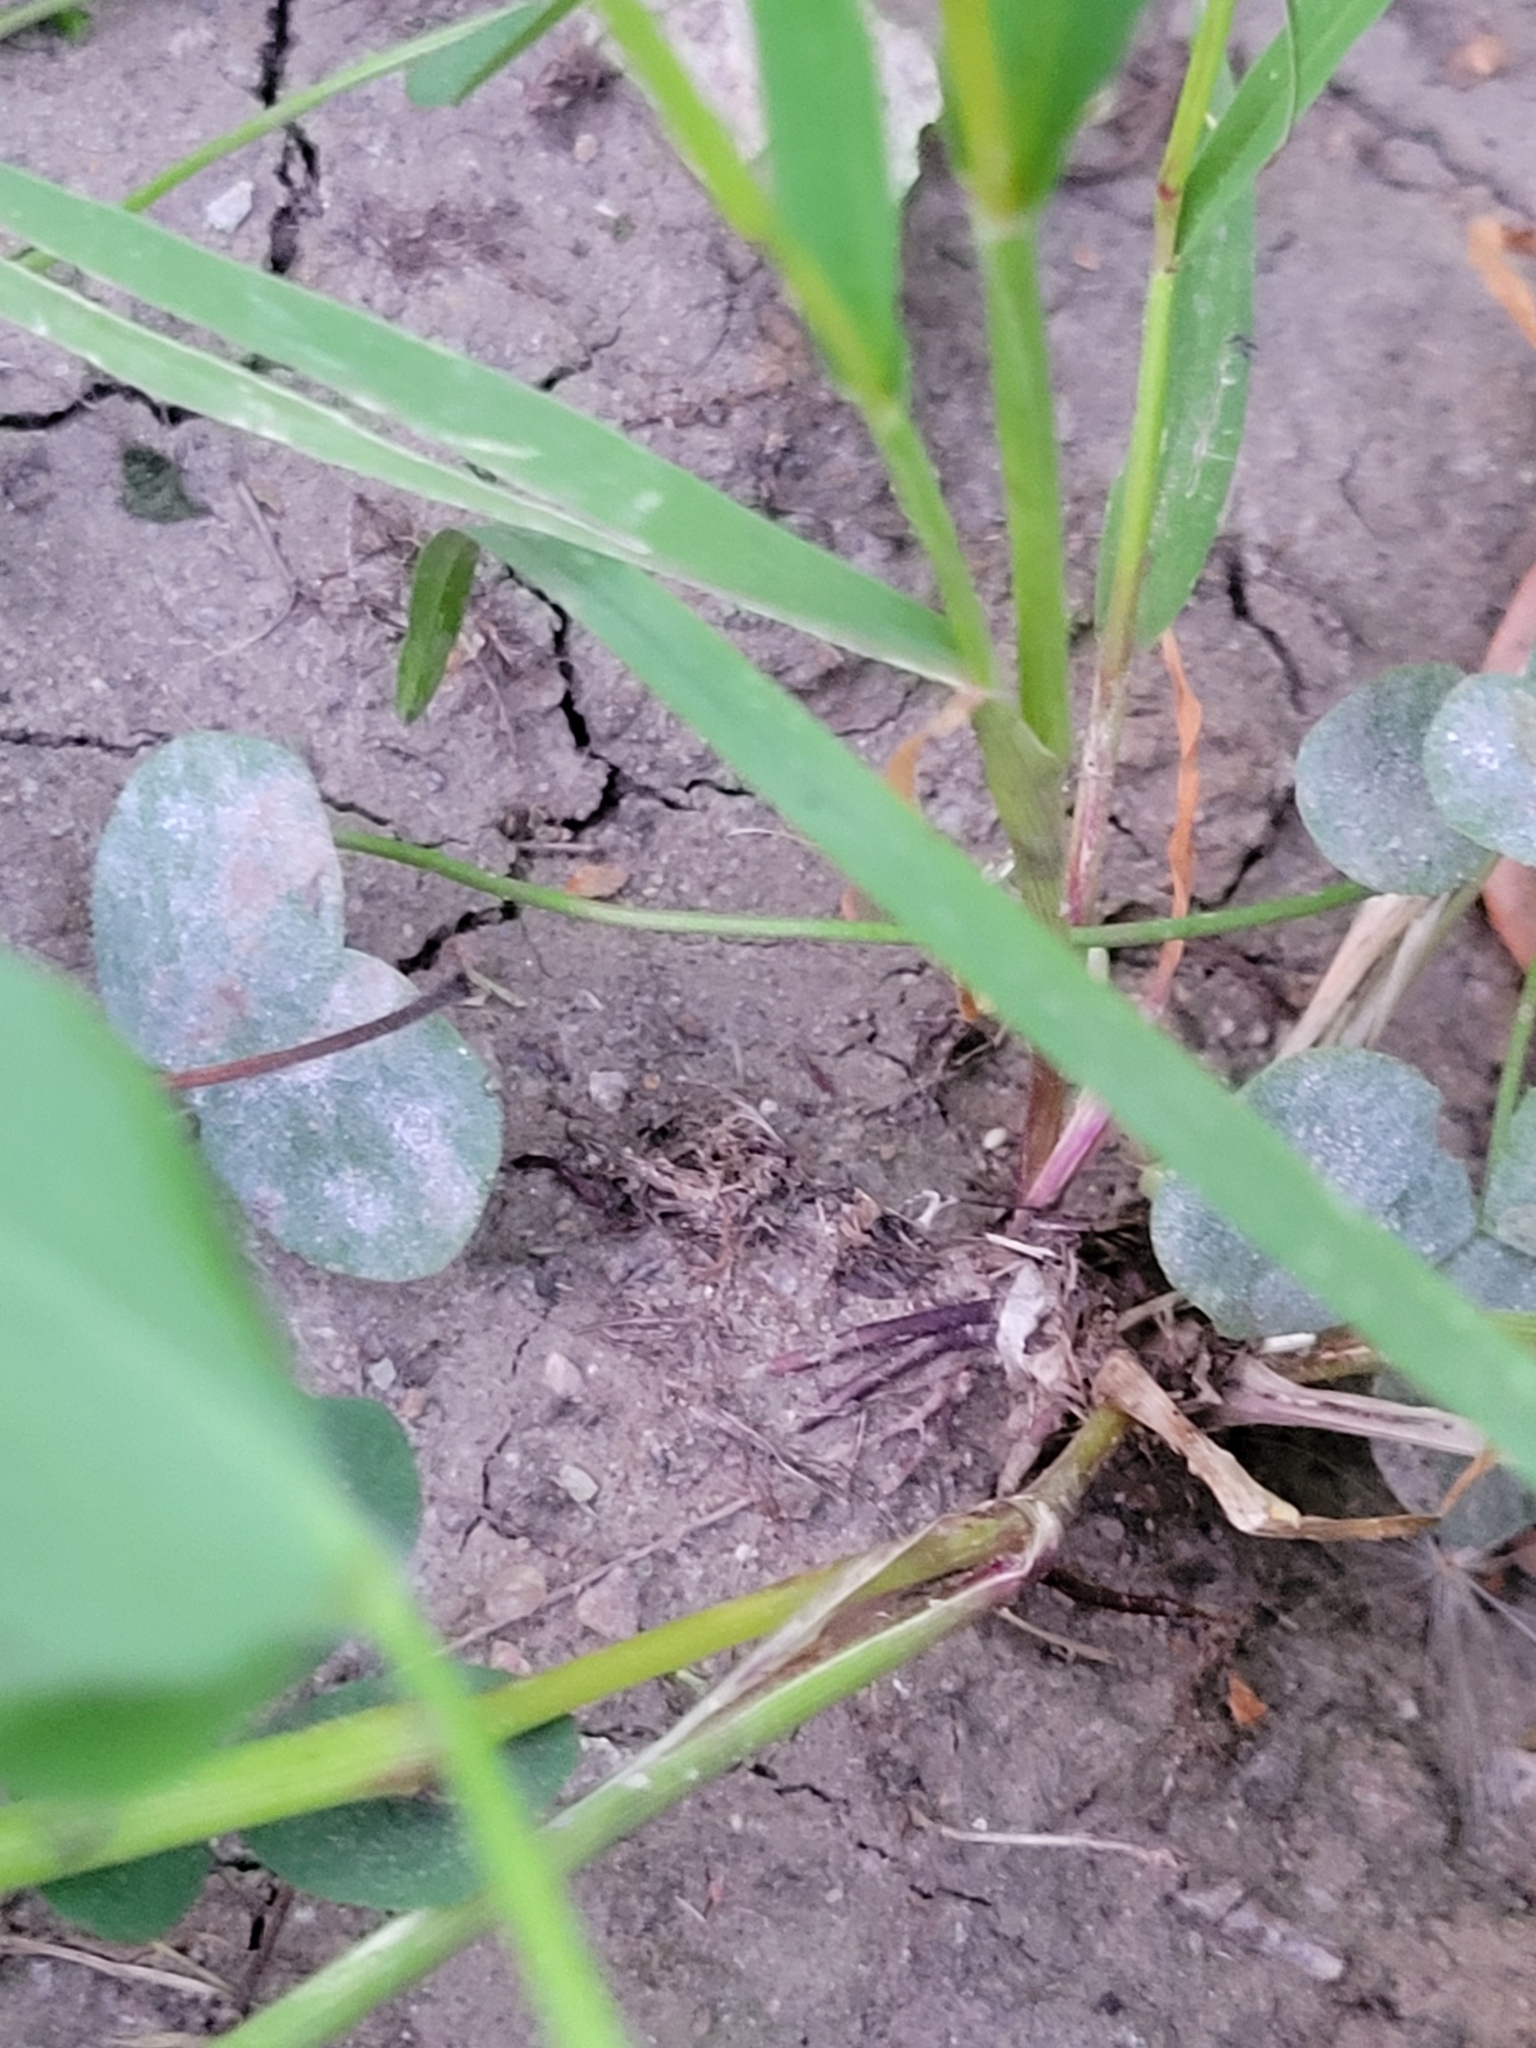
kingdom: Plantae
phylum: Tracheophyta
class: Liliopsida
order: Poales
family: Poaceae
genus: Setaria
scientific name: Setaria viridis
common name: Green bristlegrass
